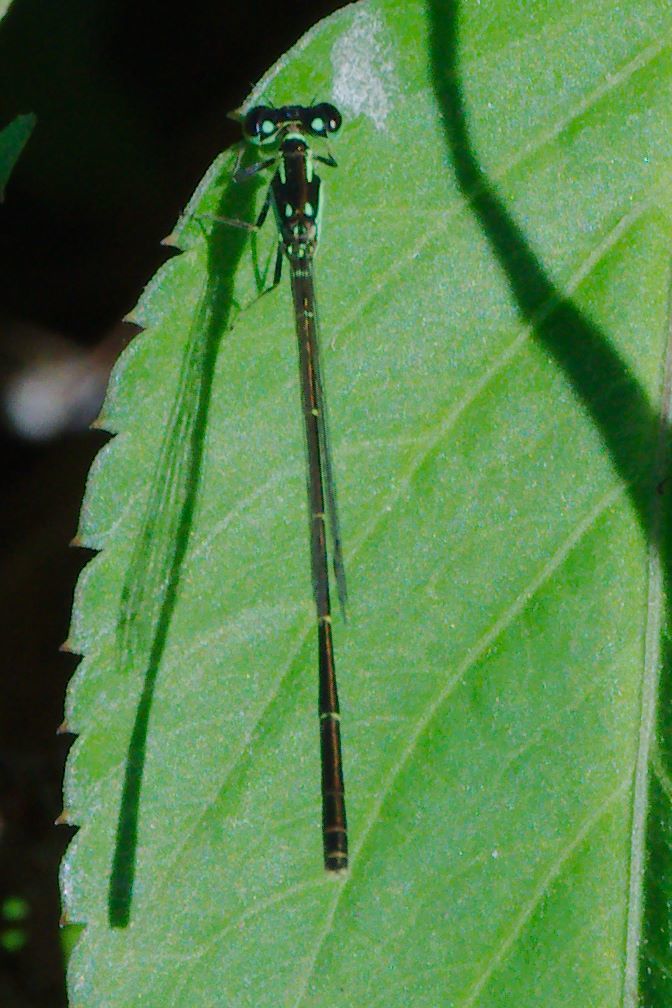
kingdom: Animalia
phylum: Arthropoda
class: Insecta
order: Odonata
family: Coenagrionidae
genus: Ischnura
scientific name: Ischnura posita
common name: Fragile forktail
